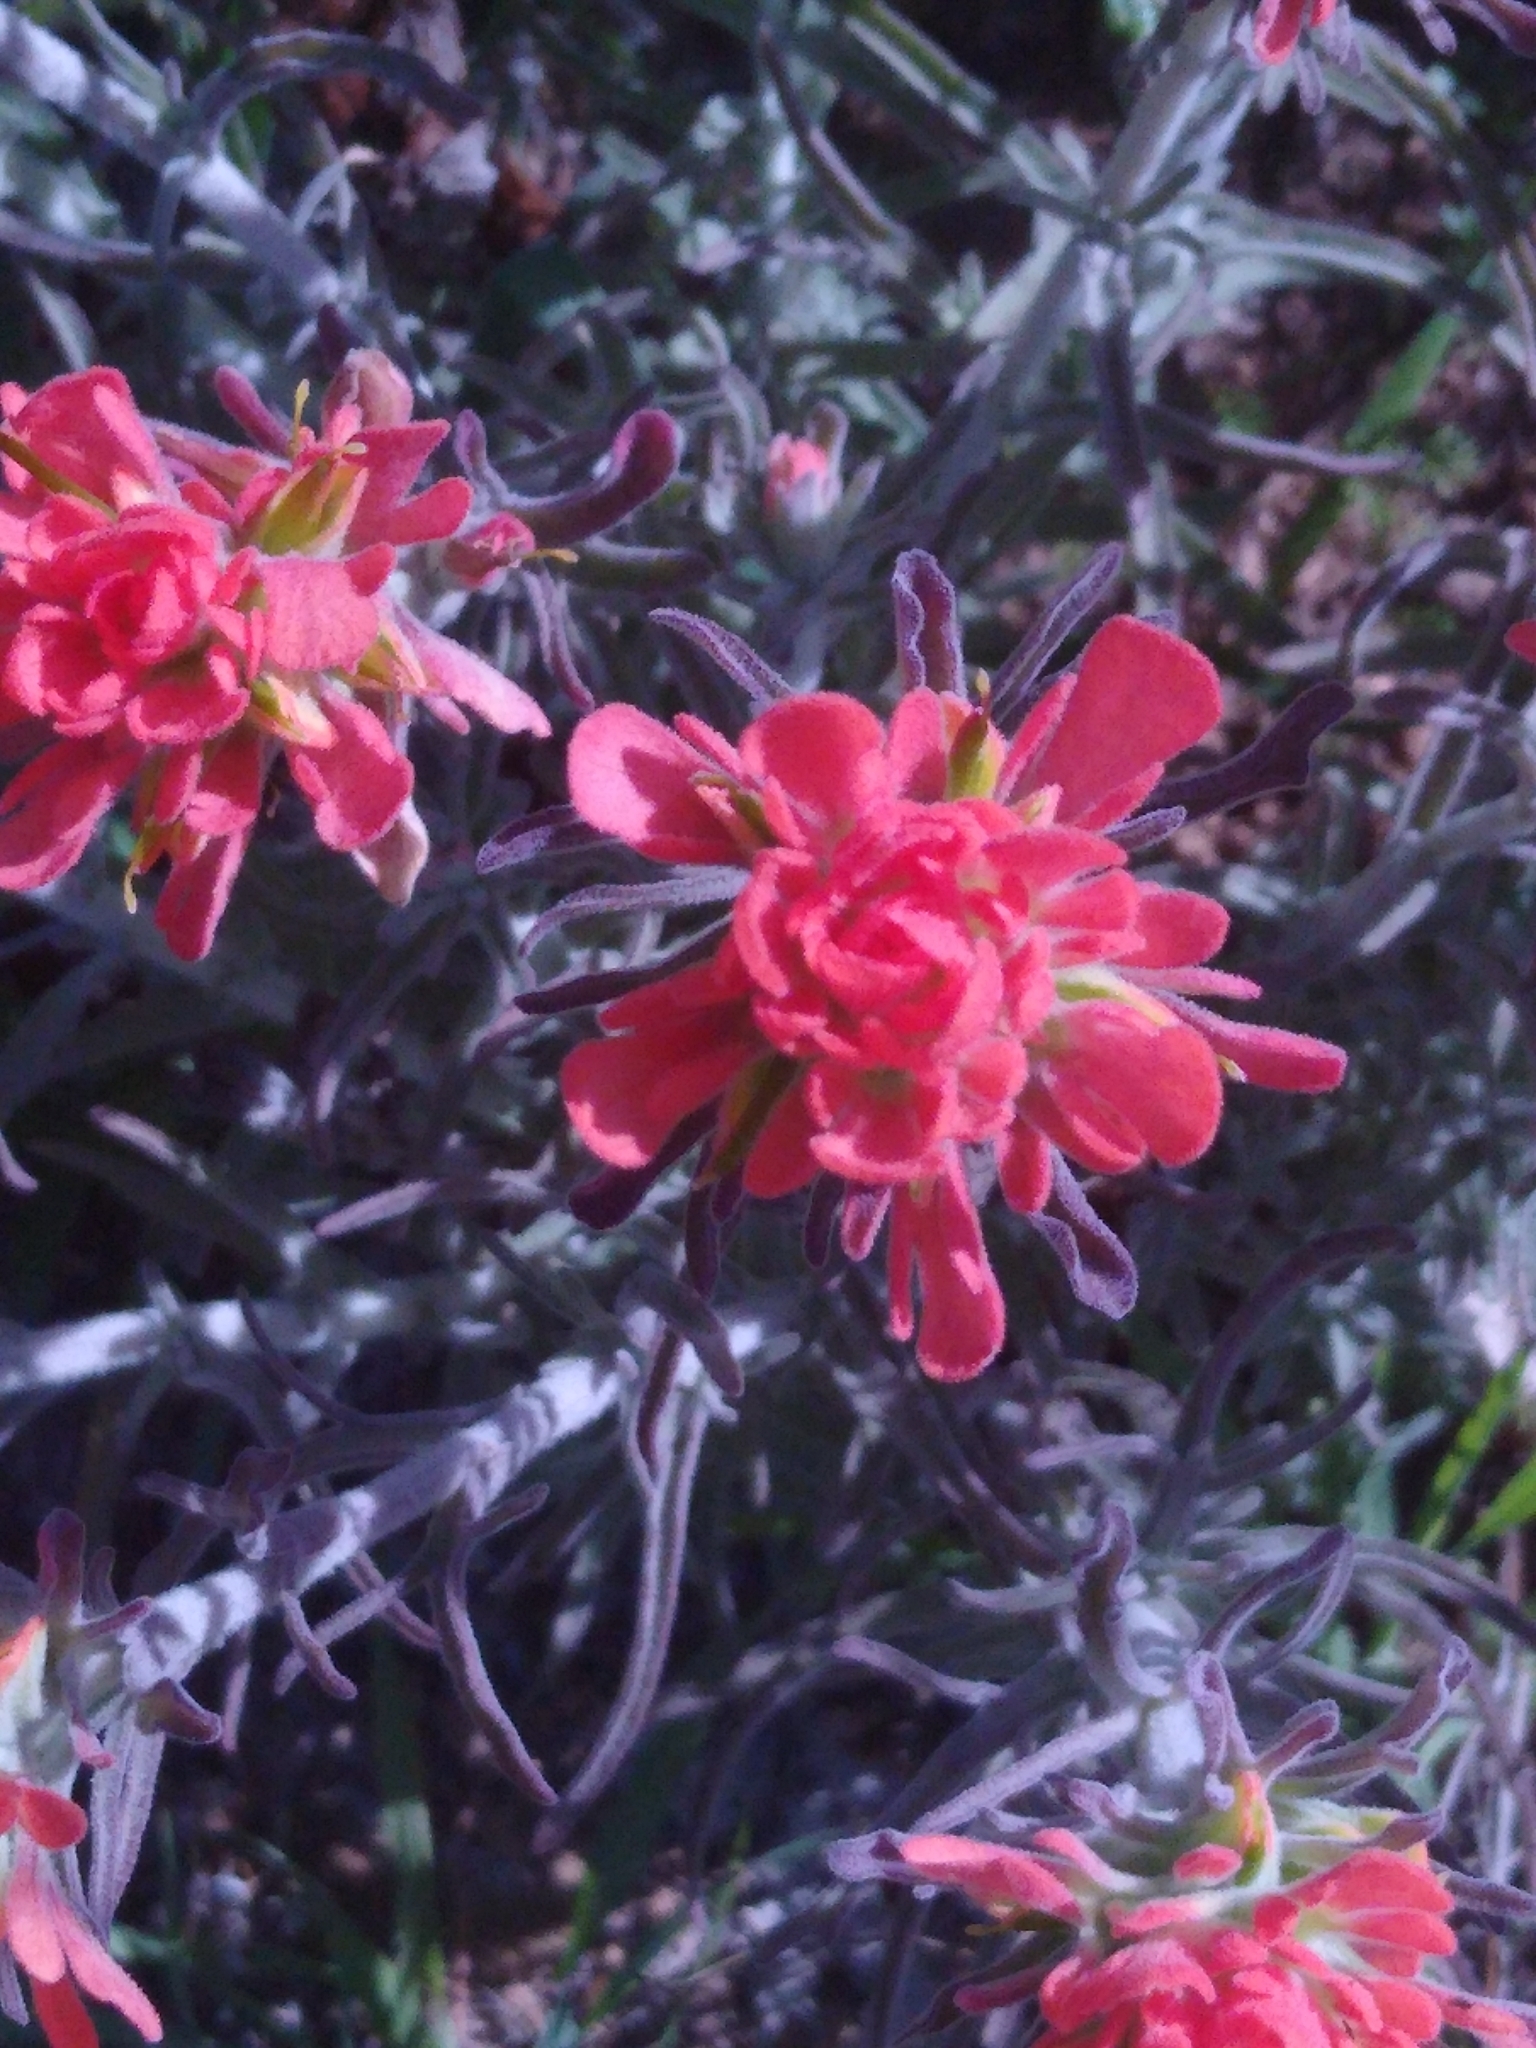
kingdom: Plantae
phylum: Tracheophyta
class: Magnoliopsida
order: Lamiales
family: Orobanchaceae
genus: Castilleja
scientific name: Castilleja foliolosa
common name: Woolly indian paintbrush
